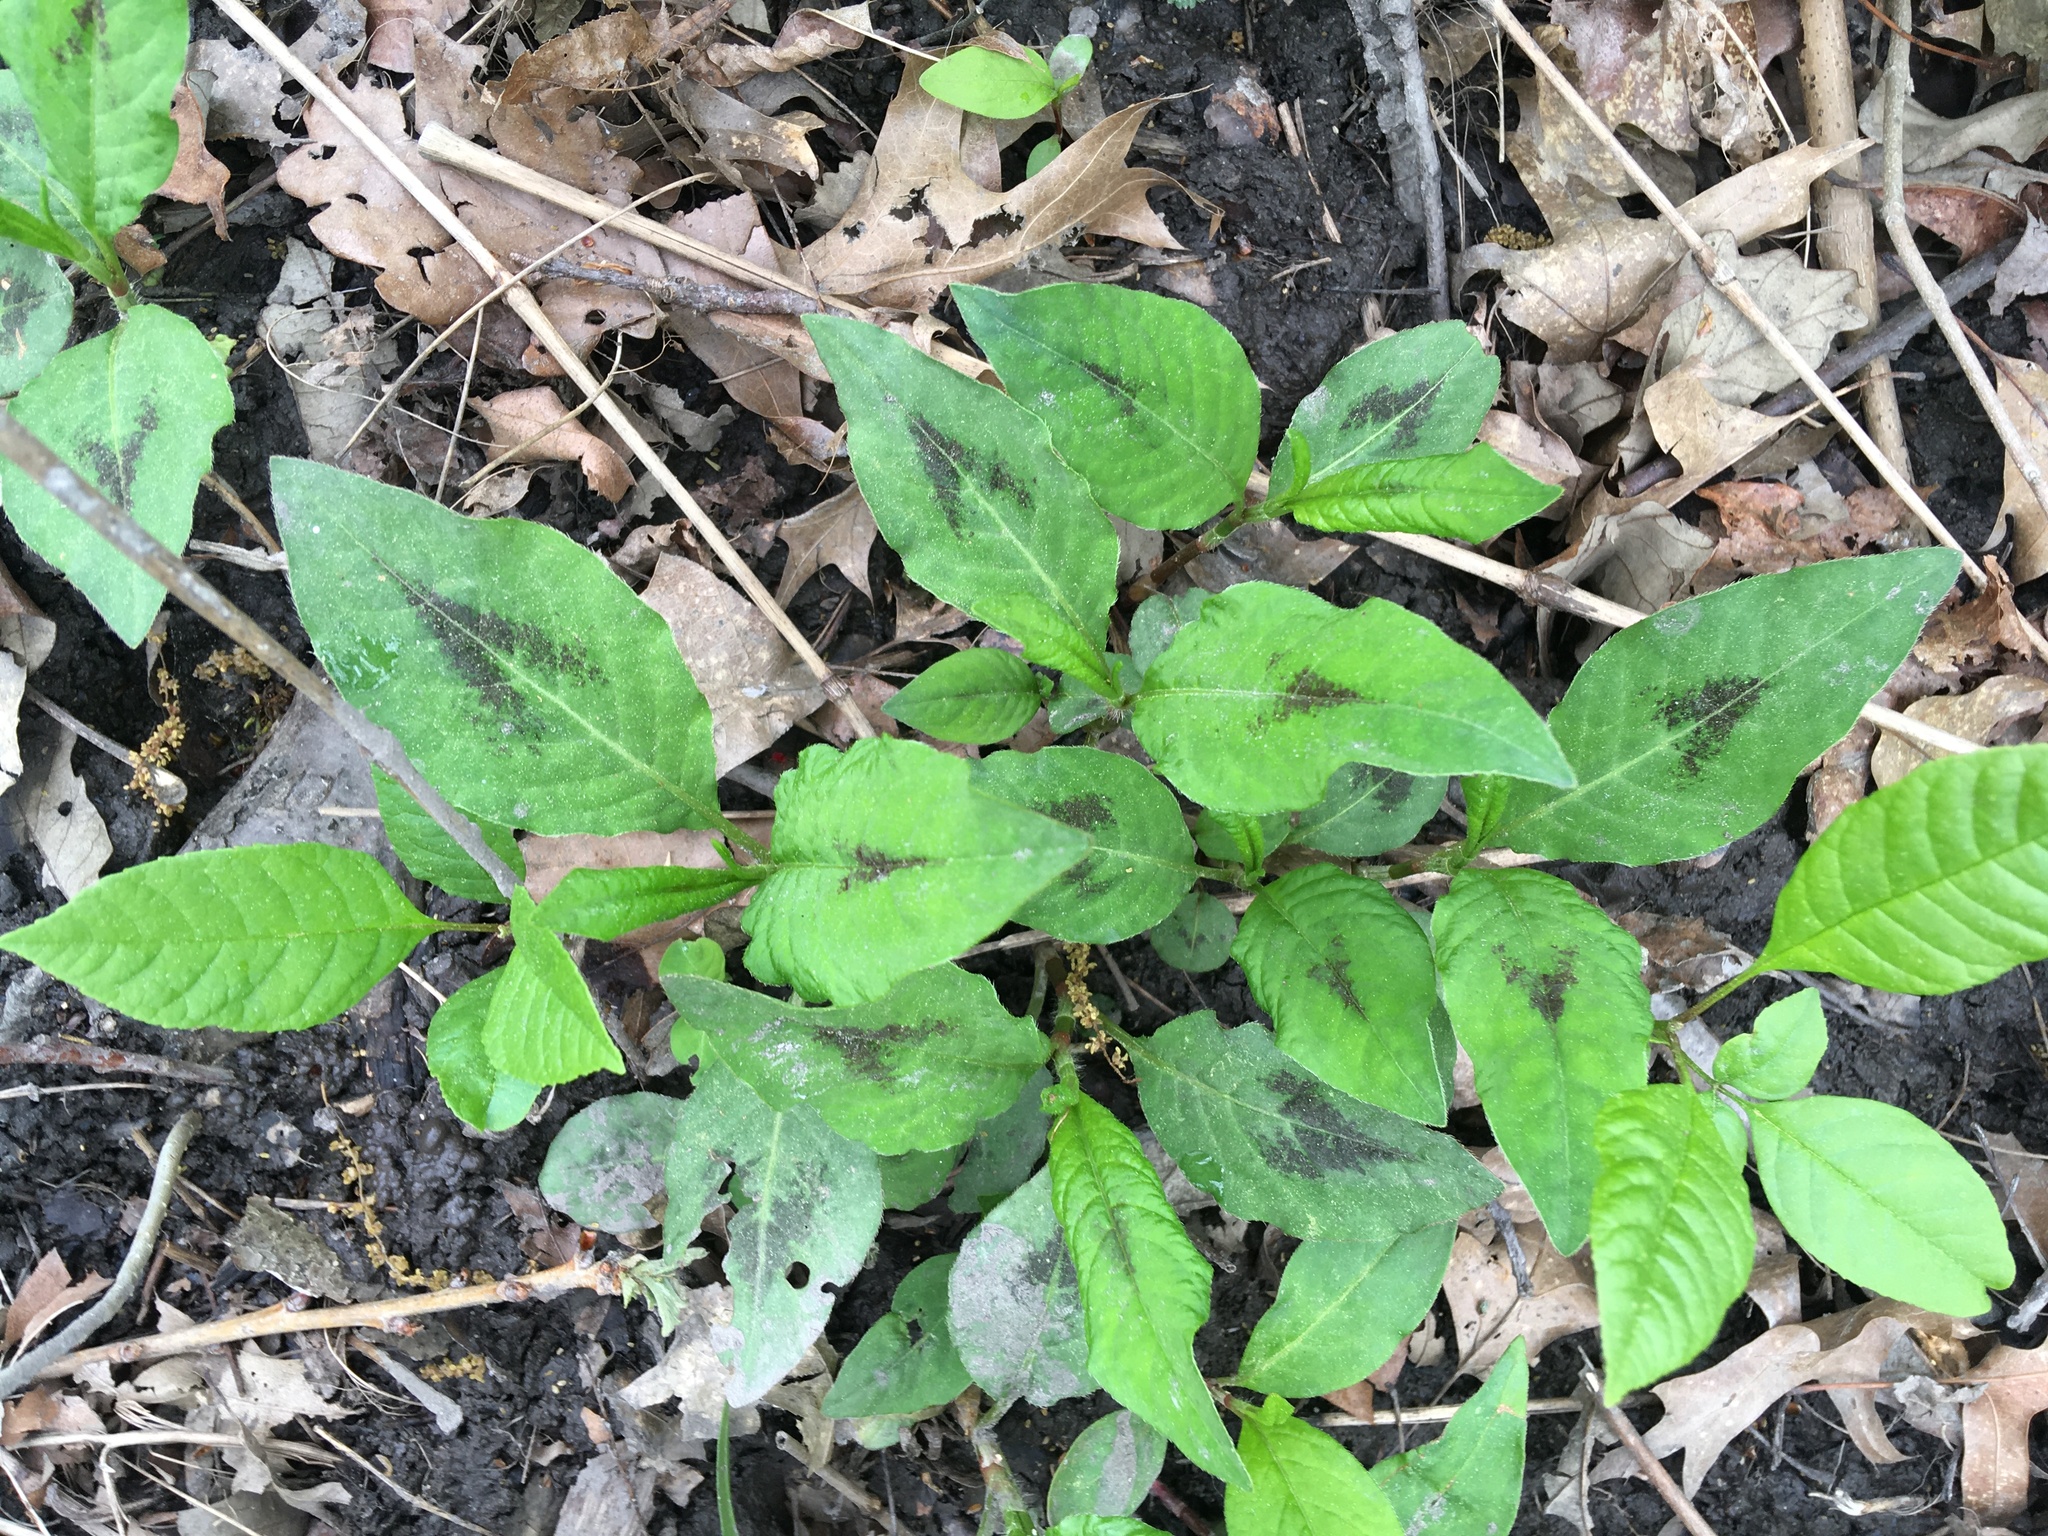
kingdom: Plantae
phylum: Tracheophyta
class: Magnoliopsida
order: Caryophyllales
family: Polygonaceae
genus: Persicaria
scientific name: Persicaria virginiana
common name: Jumpseed
